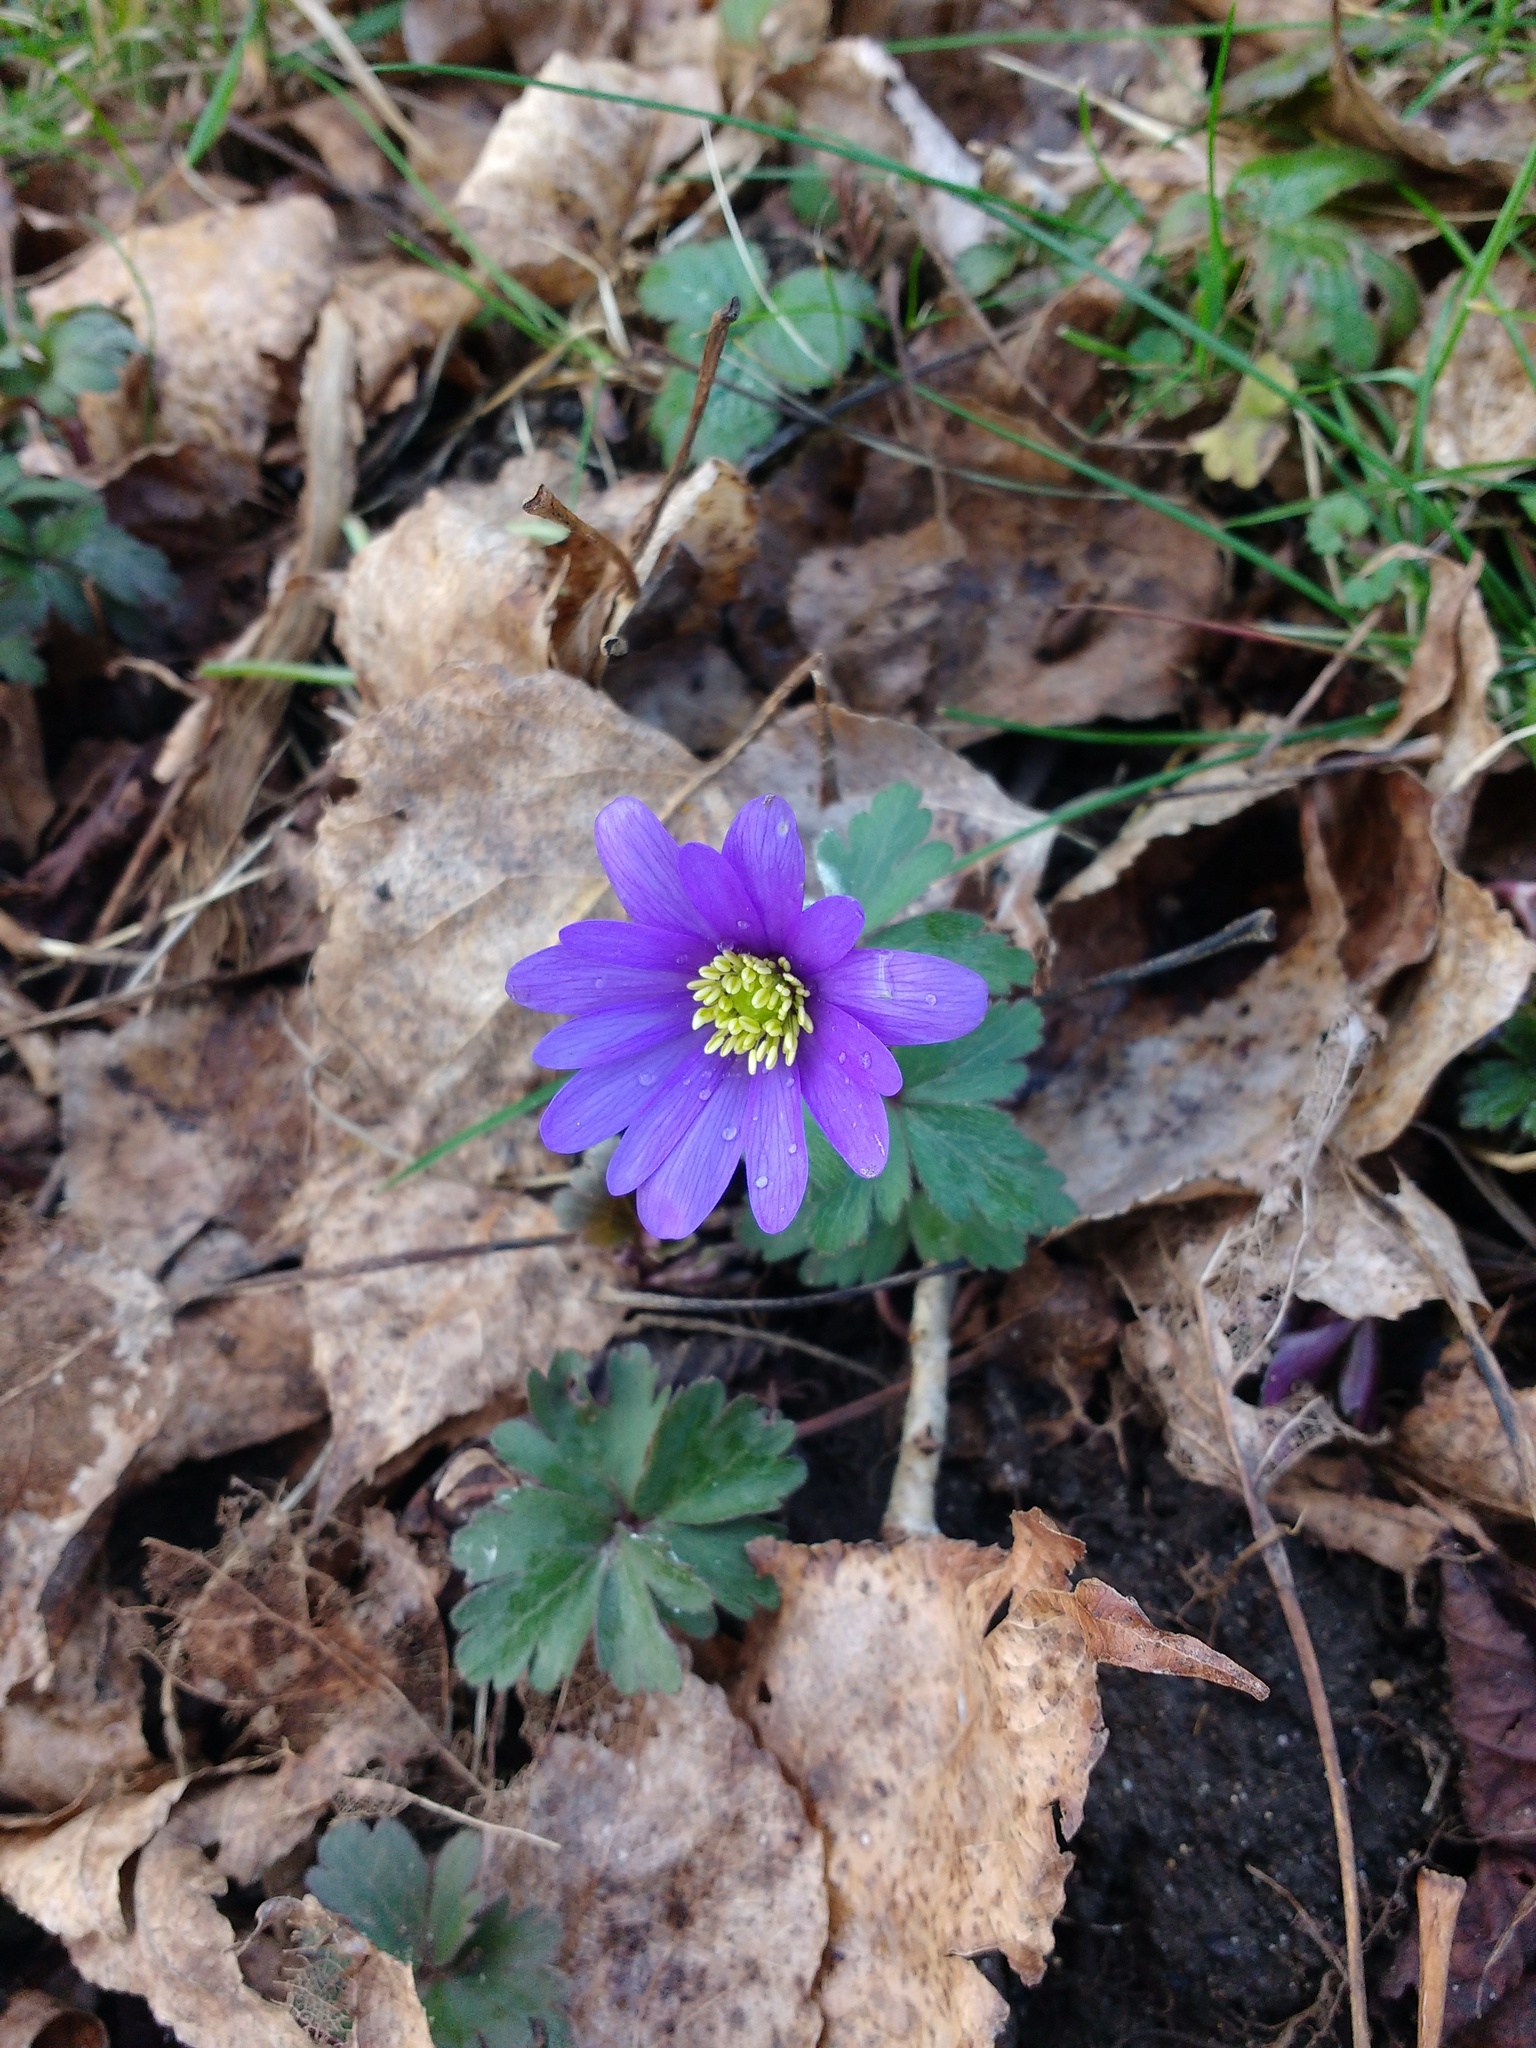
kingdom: Plantae
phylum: Tracheophyta
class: Magnoliopsida
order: Ranunculales
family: Ranunculaceae
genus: Anemone
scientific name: Anemone blanda
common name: Balkan anemone
